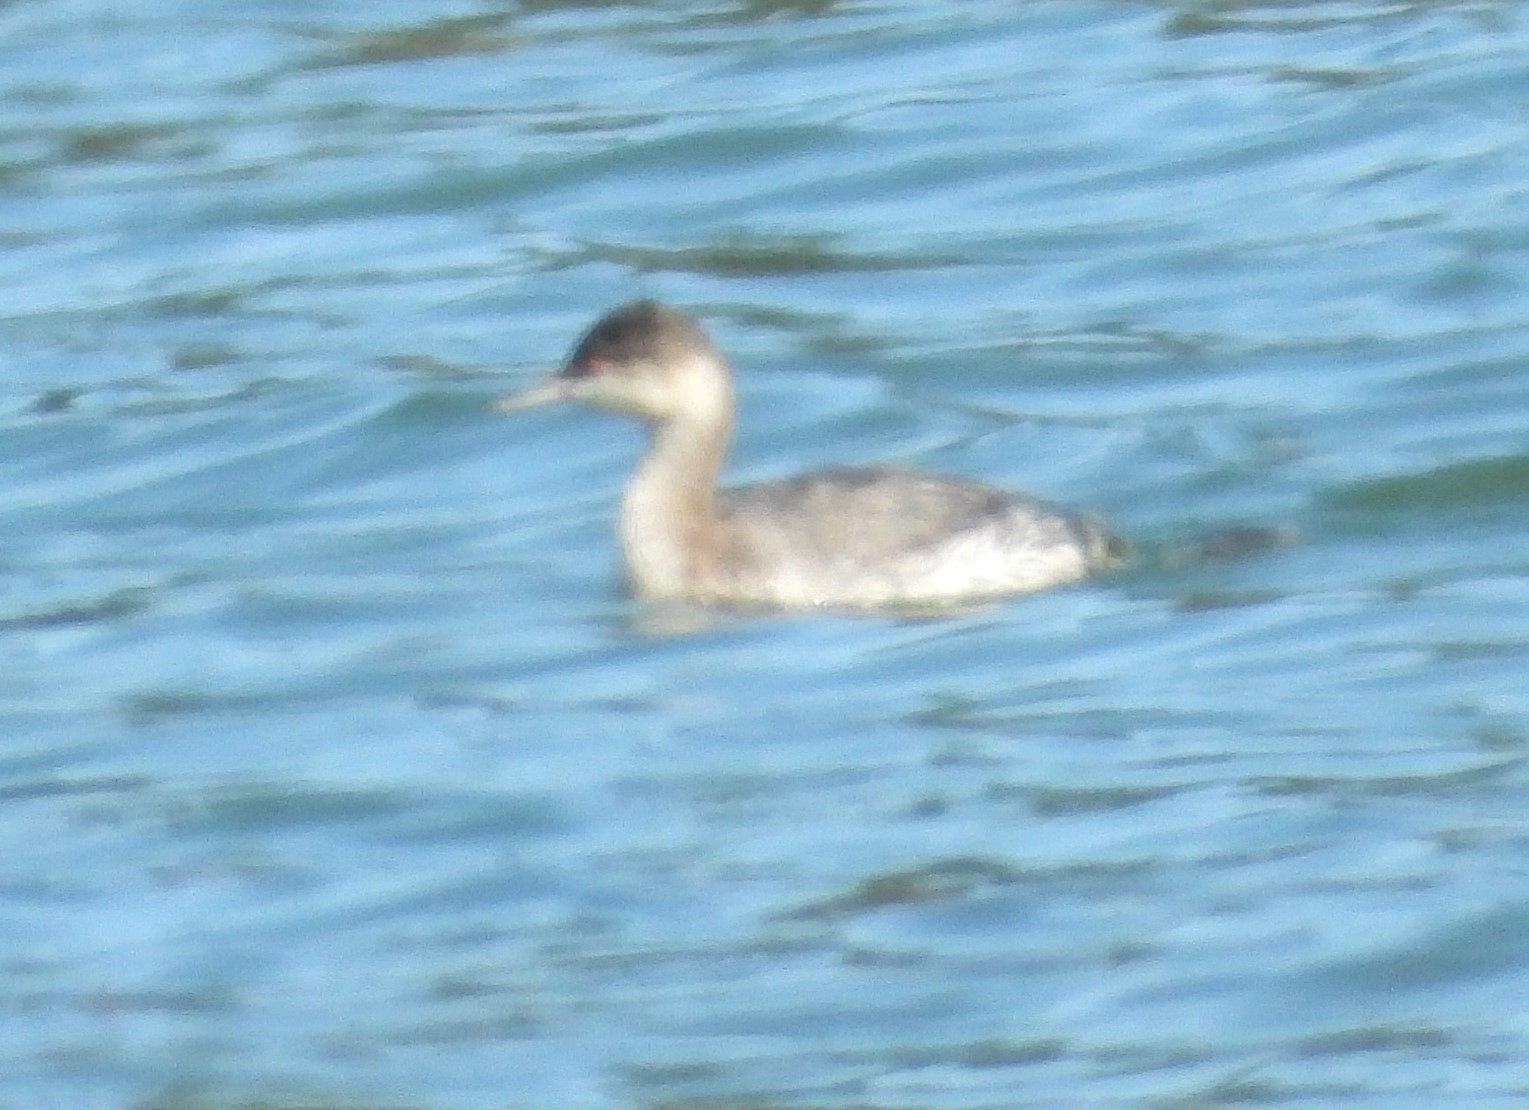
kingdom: Animalia
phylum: Chordata
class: Aves
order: Podicipediformes
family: Podicipedidae
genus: Podiceps
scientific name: Podiceps nigricollis
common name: Black-necked grebe
